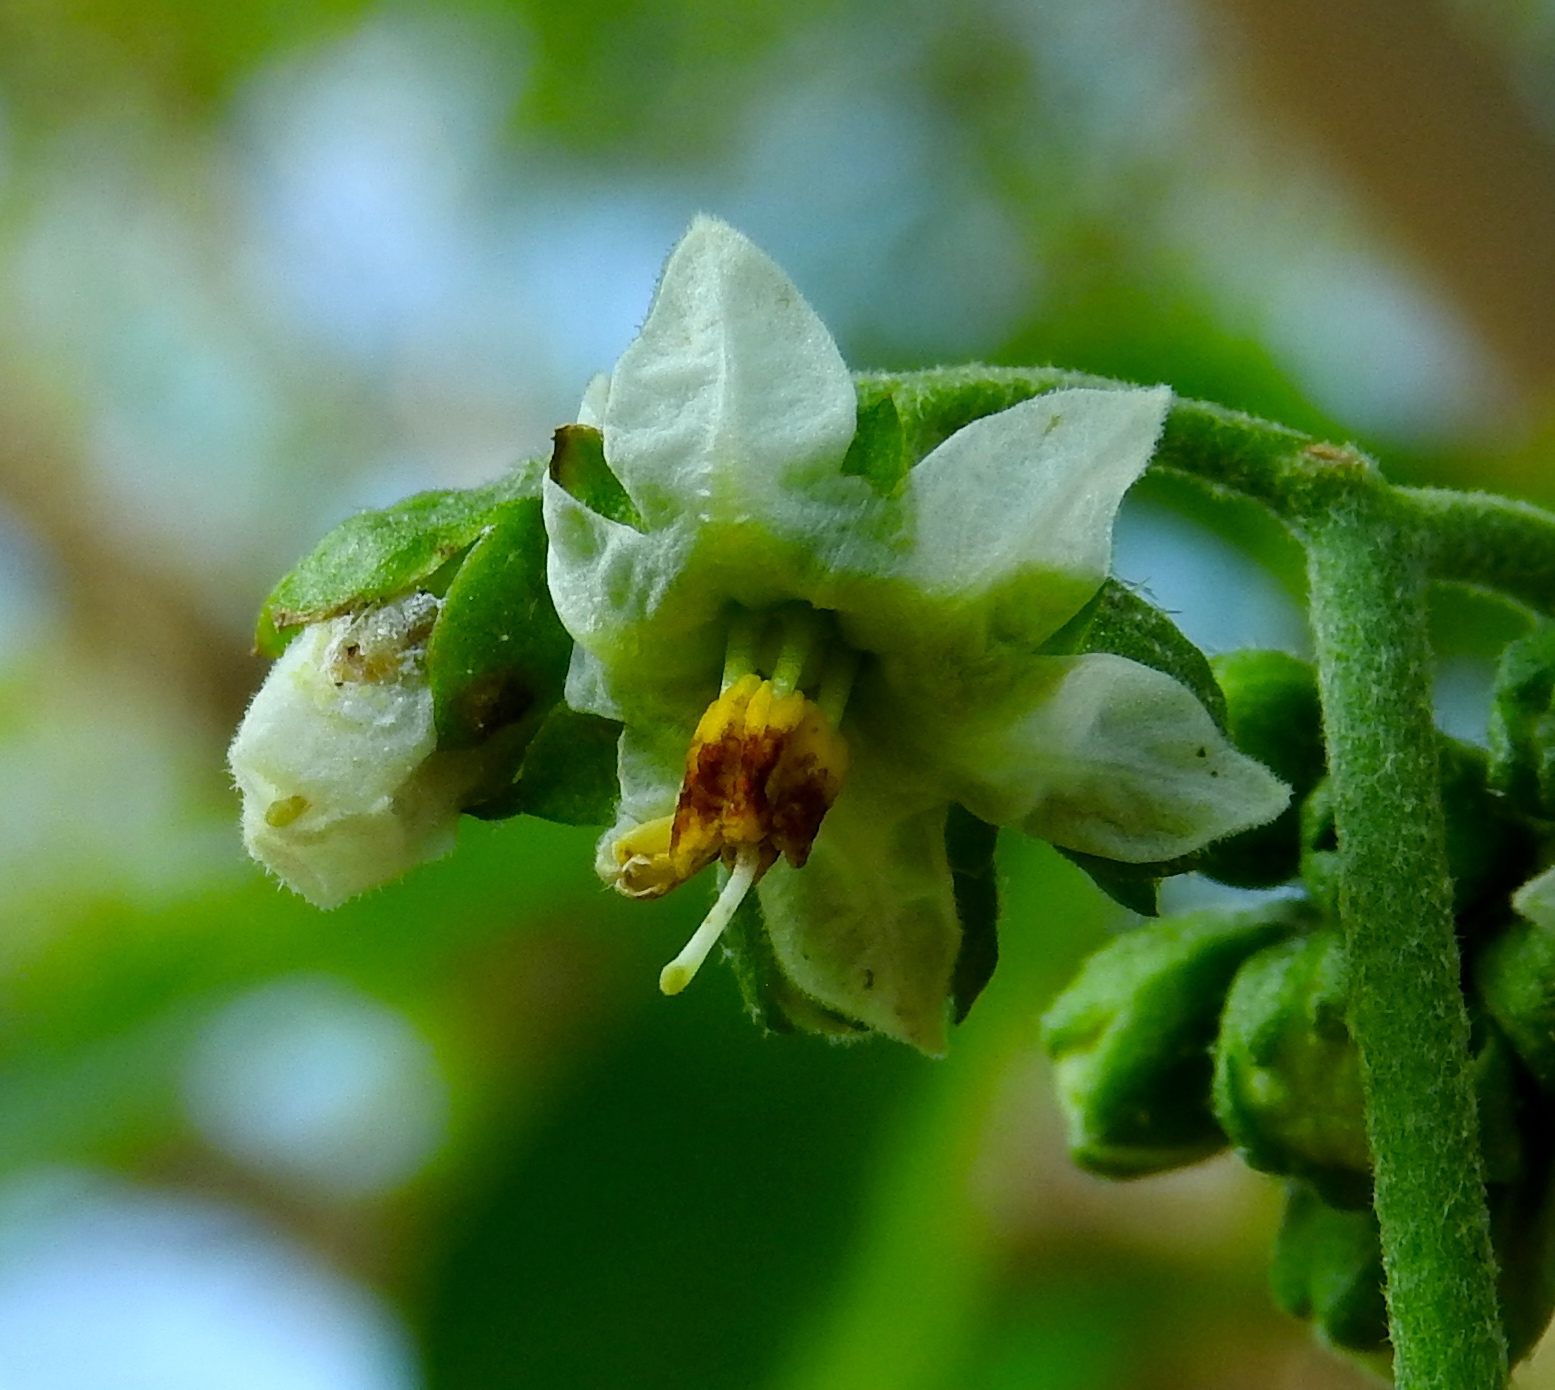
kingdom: Plantae
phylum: Tracheophyta
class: Magnoliopsida
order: Solanales
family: Solanaceae
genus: Solanum
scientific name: Solanum umbellatum
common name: Nightshade
